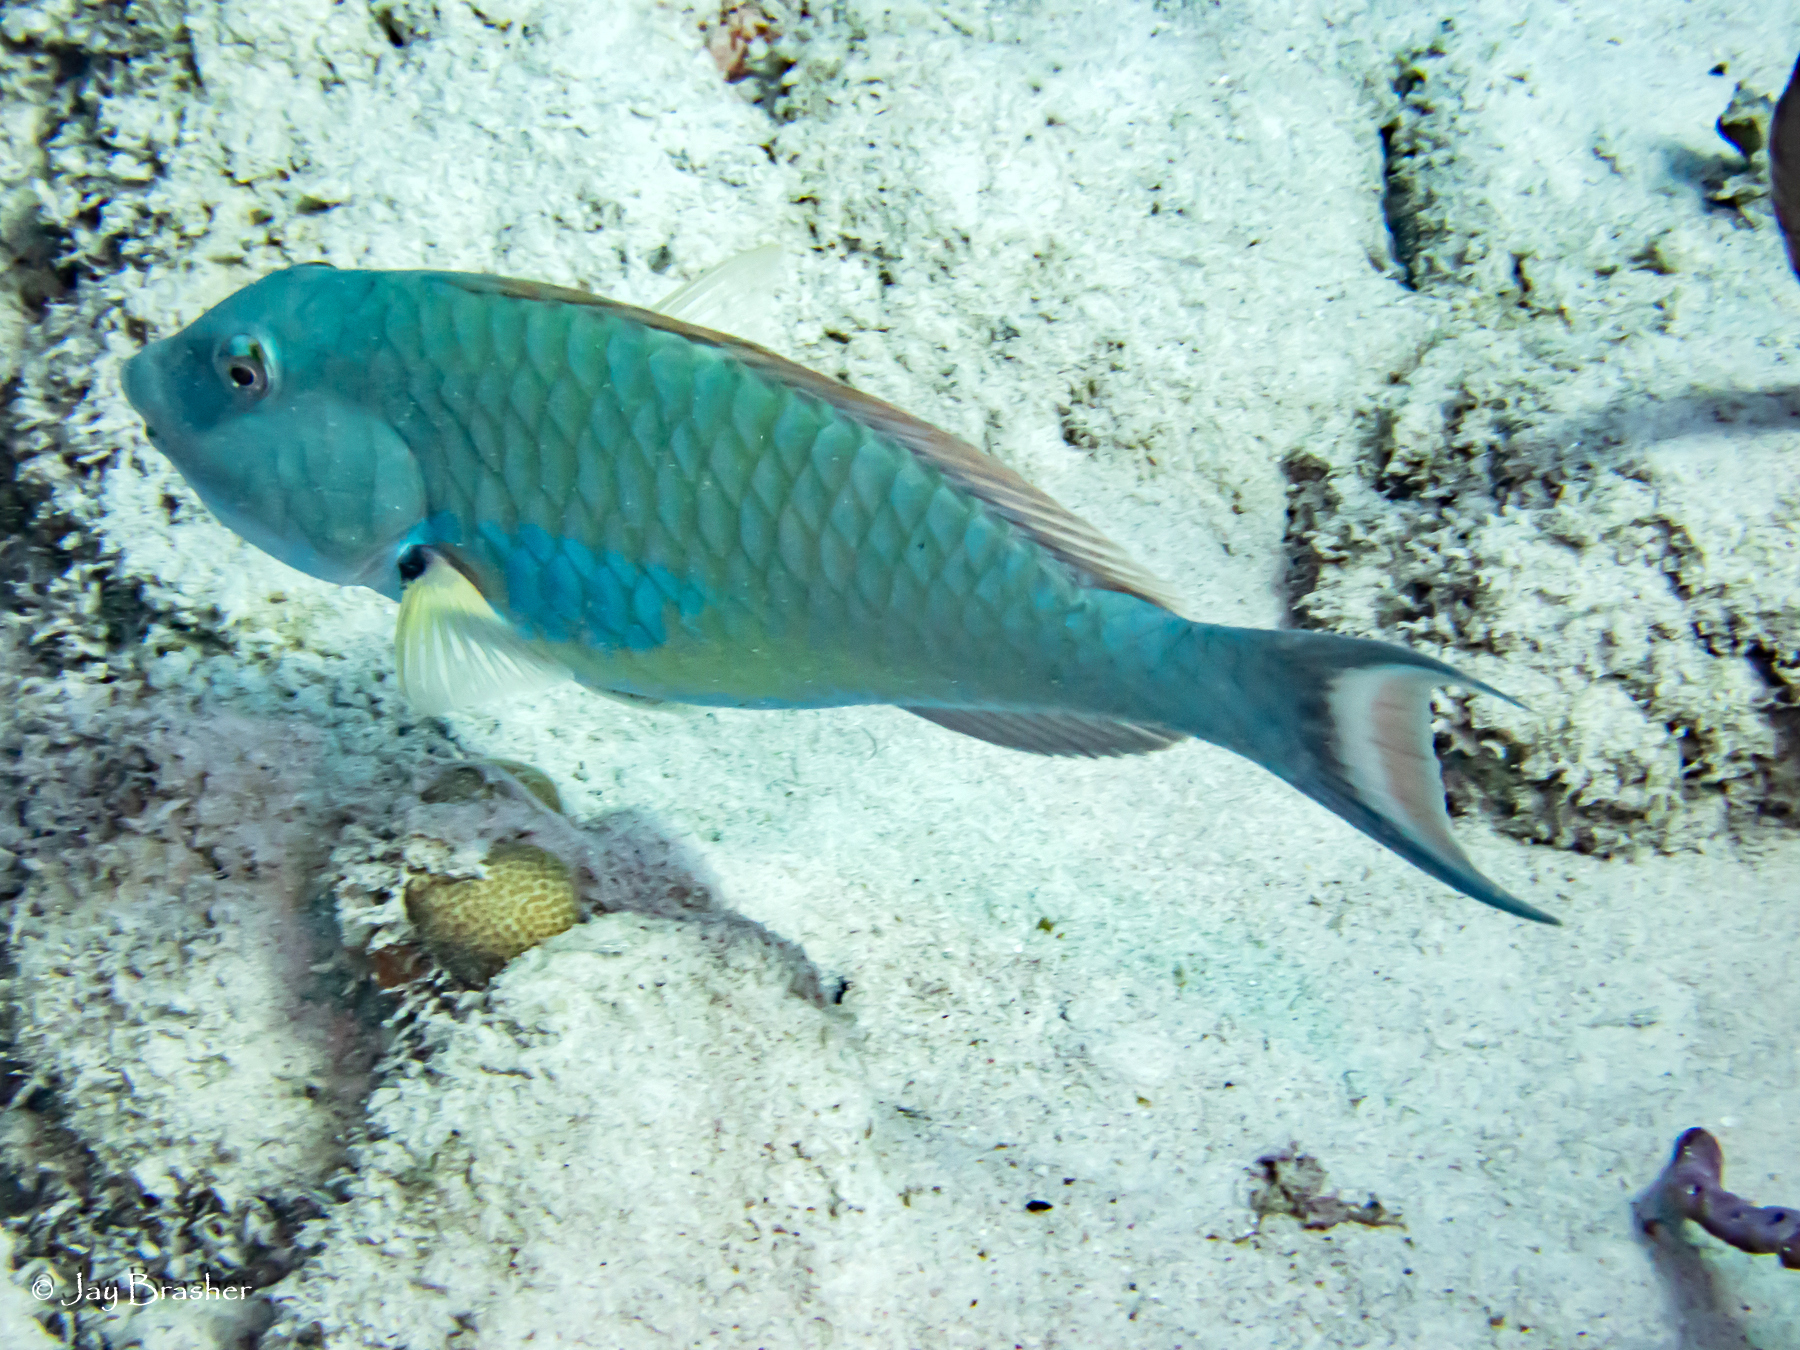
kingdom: Animalia
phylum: Chordata
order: Perciformes
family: Scaridae
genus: Sparisoma
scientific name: Sparisoma chrysopterum
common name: Redtail parrotfish
